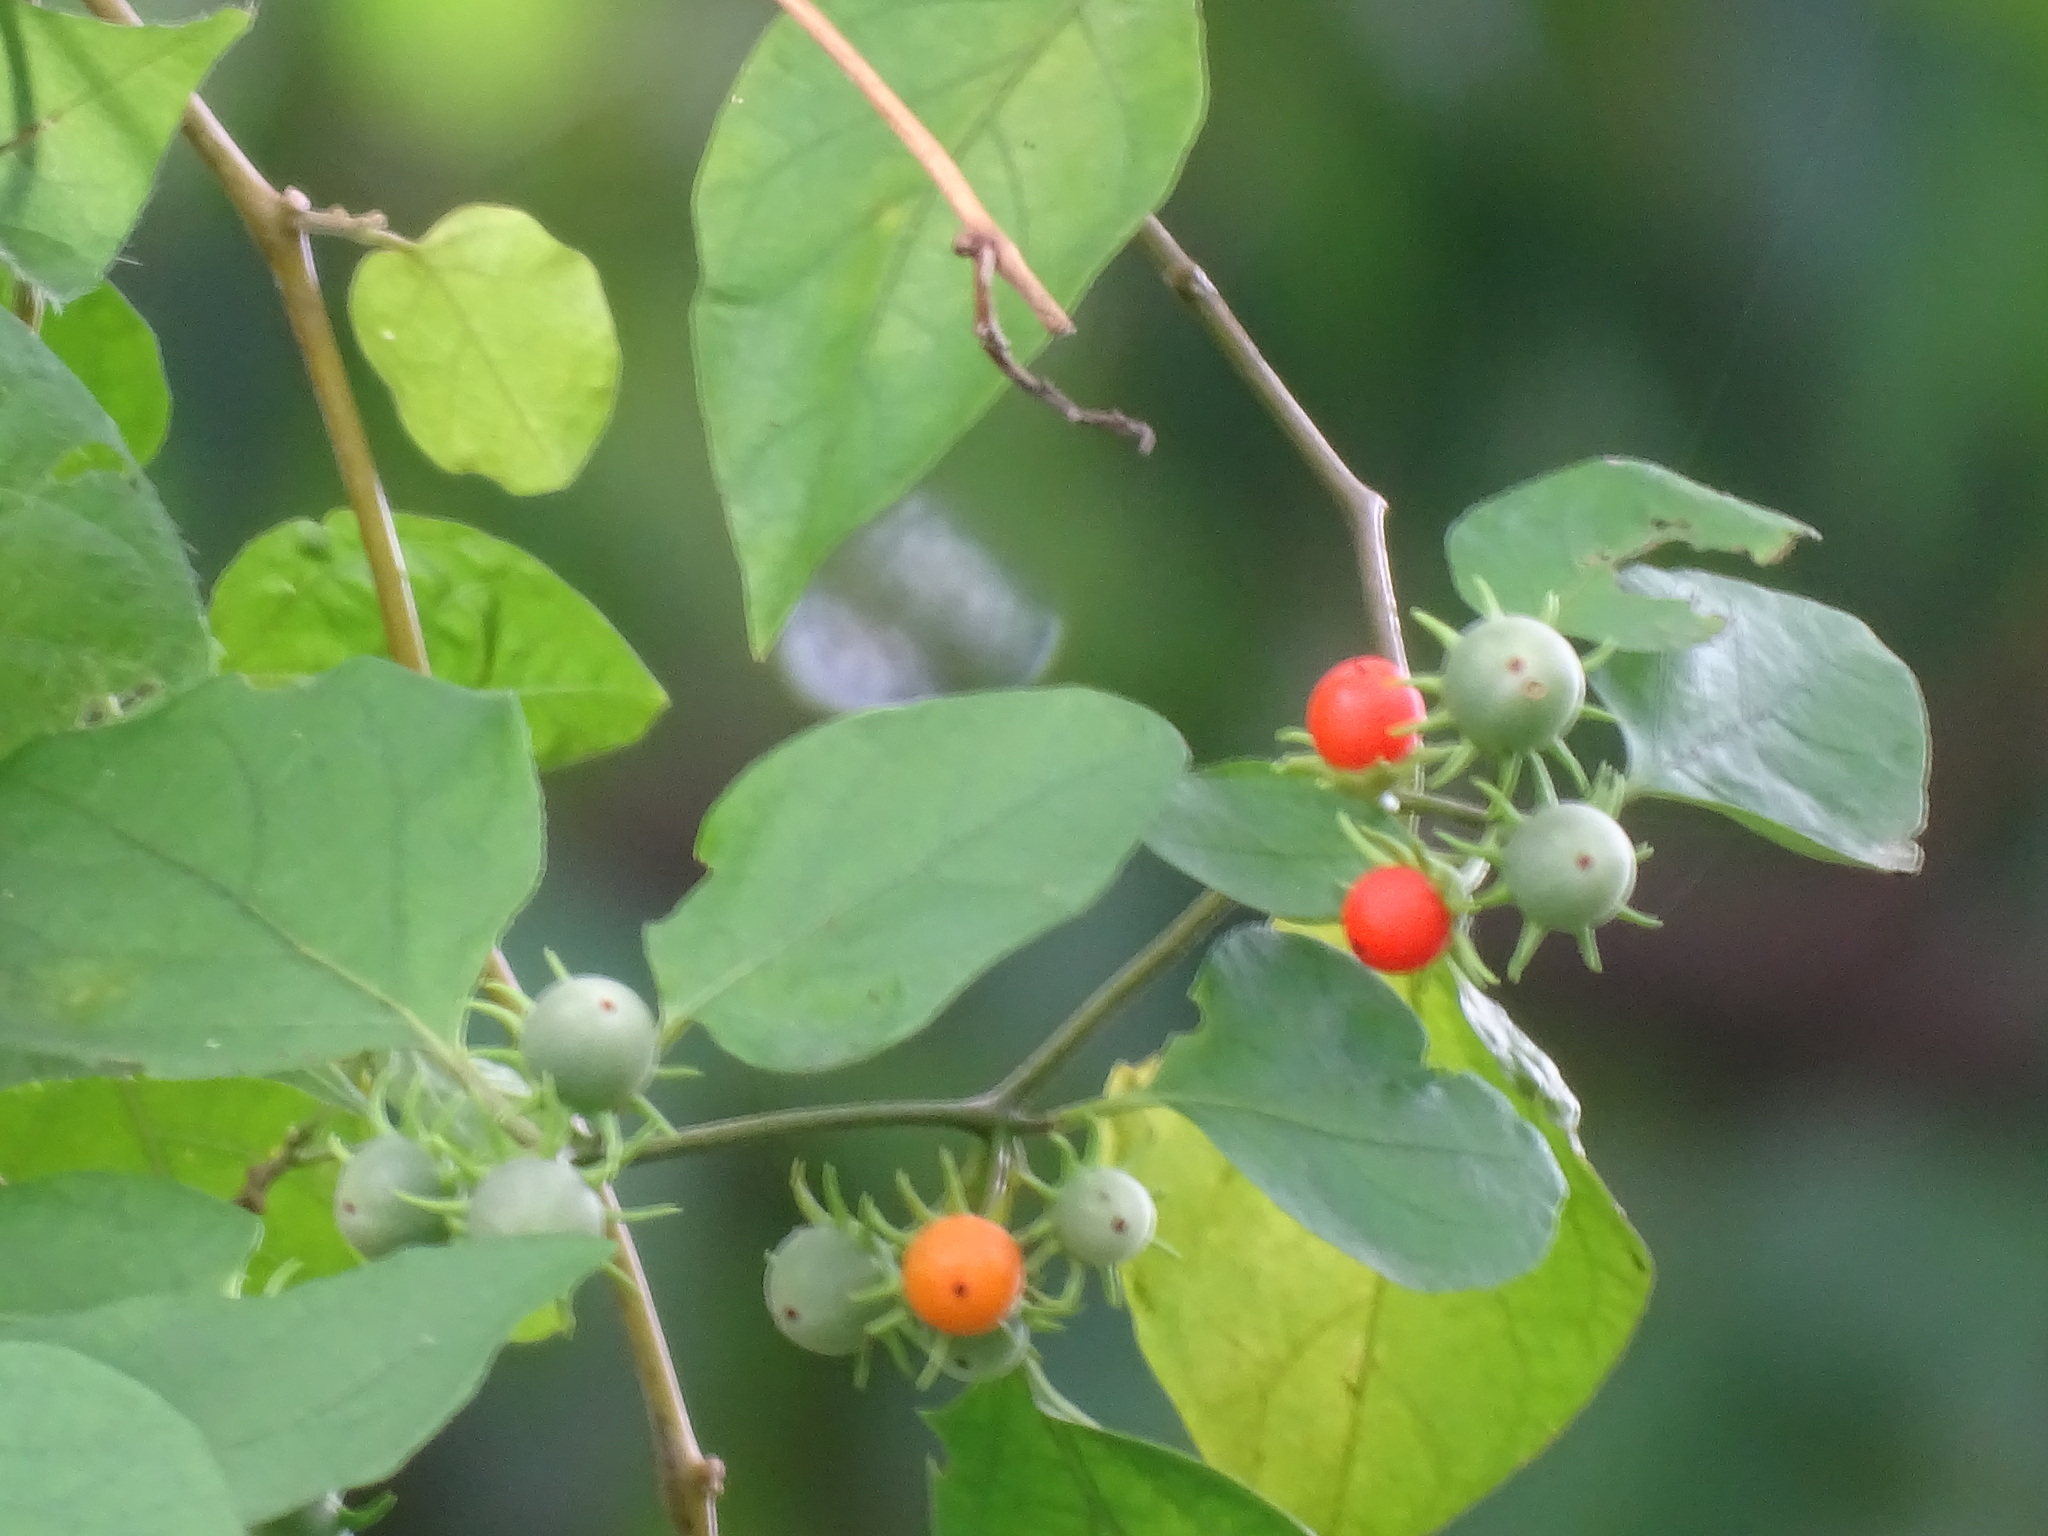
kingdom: Plantae
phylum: Tracheophyta
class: Magnoliopsida
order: Solanales
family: Solanaceae
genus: Lycianthes
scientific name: Lycianthes scandens
